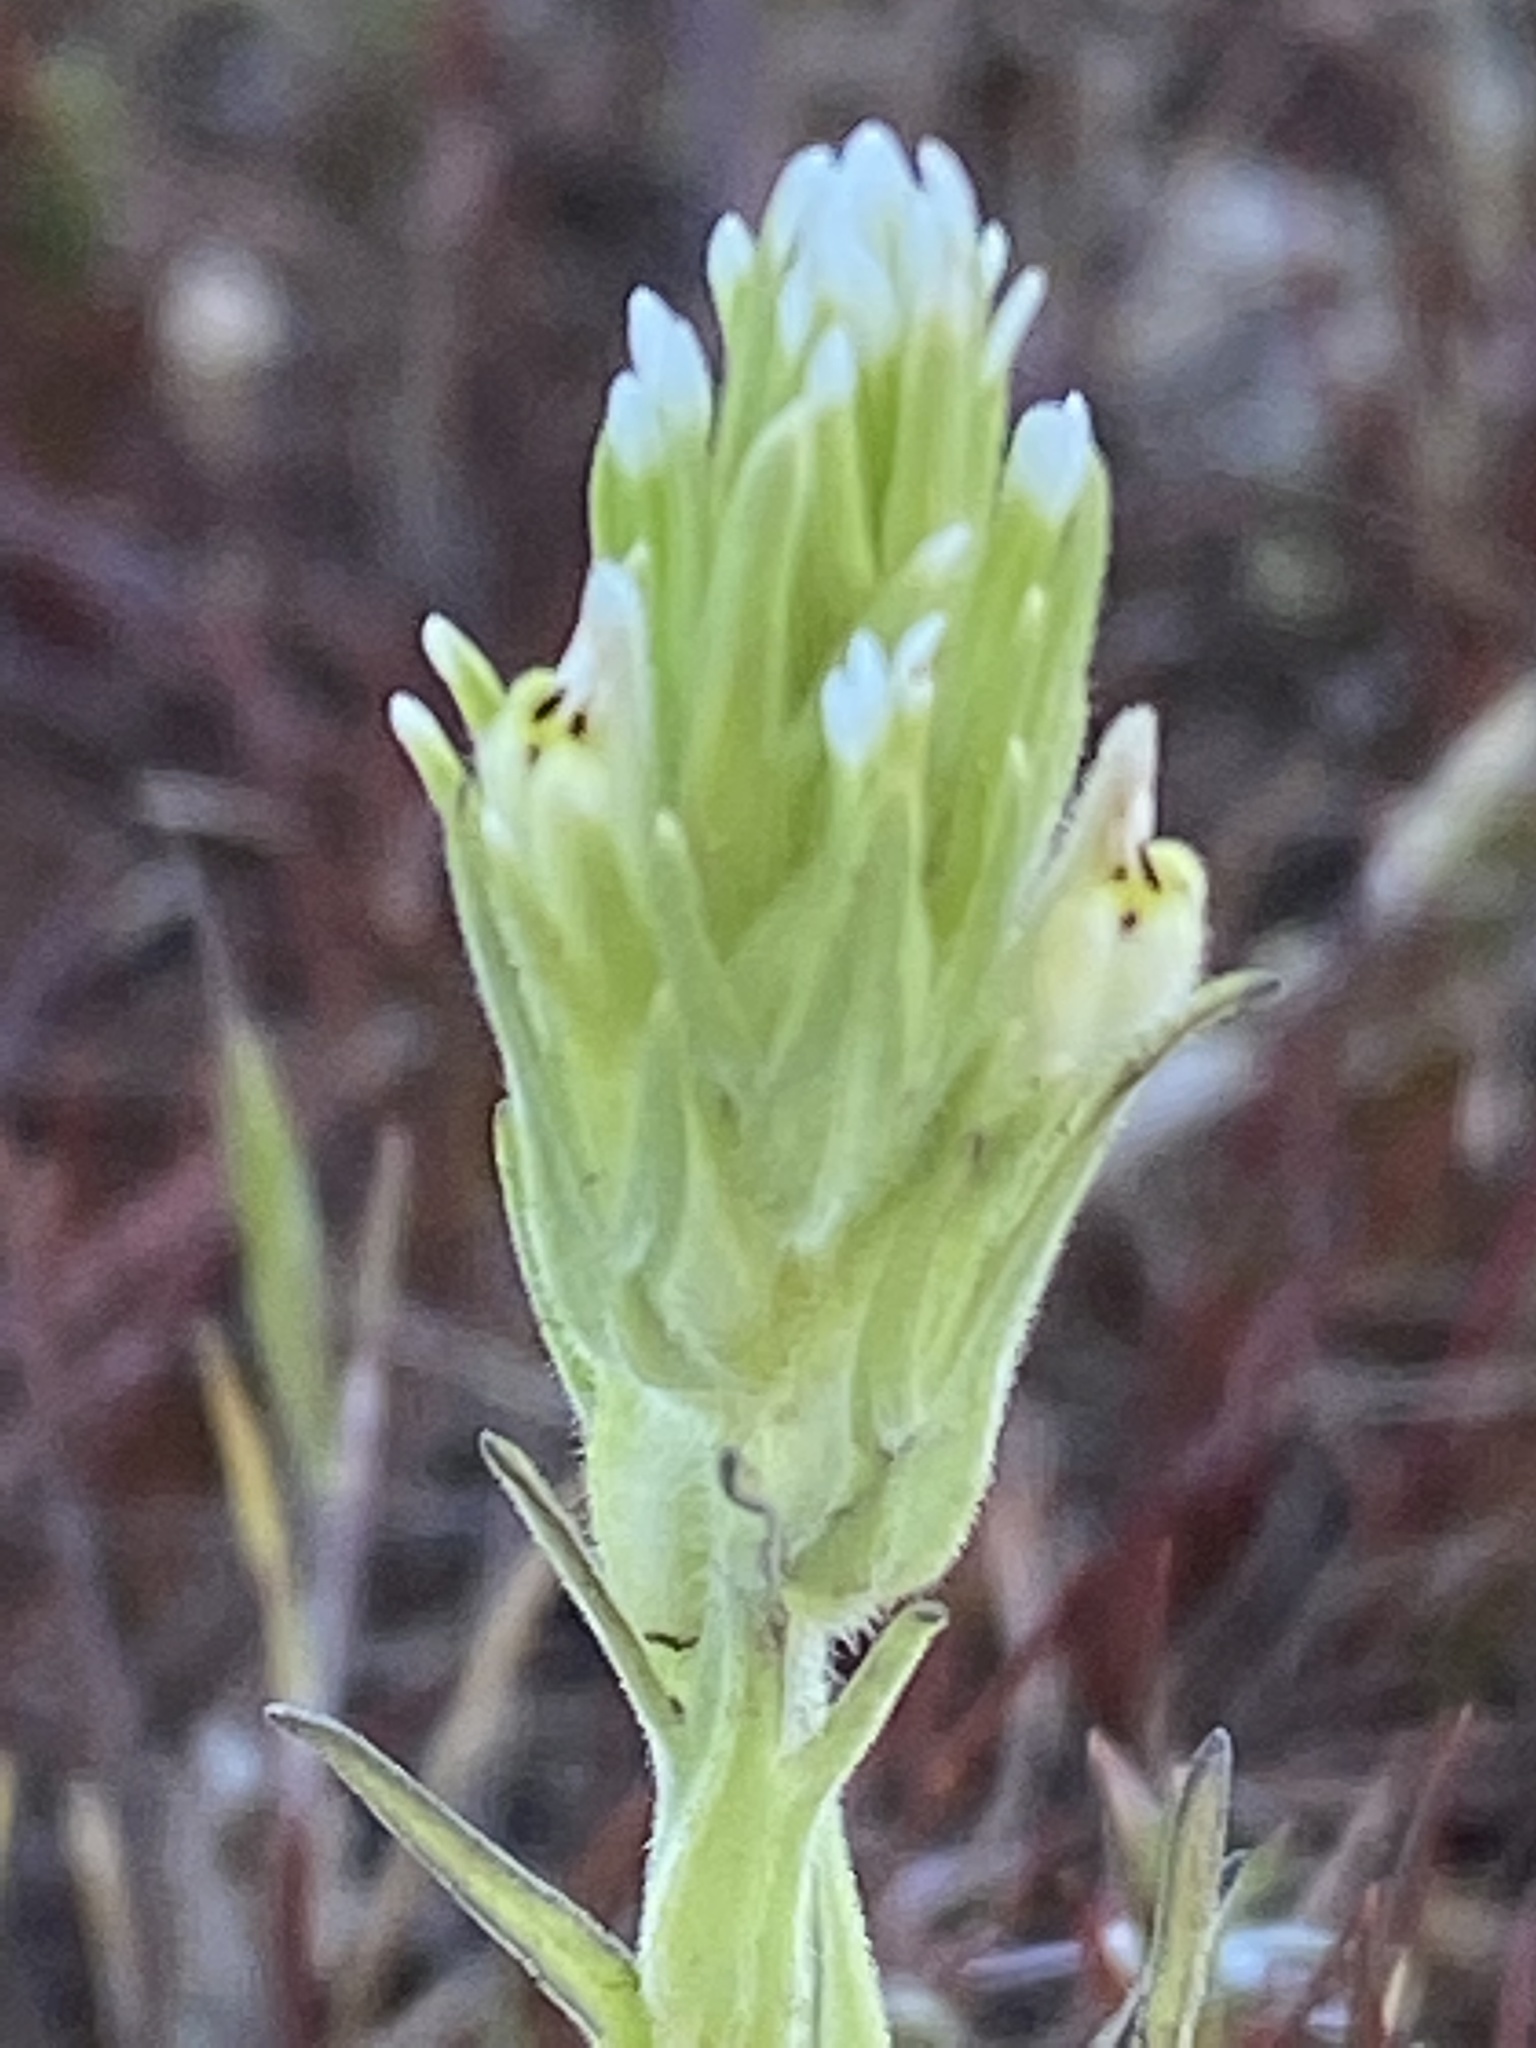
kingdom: Plantae
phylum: Tracheophyta
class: Magnoliopsida
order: Lamiales
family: Orobanchaceae
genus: Castilleja
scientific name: Castilleja attenuata
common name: Valley tassels
